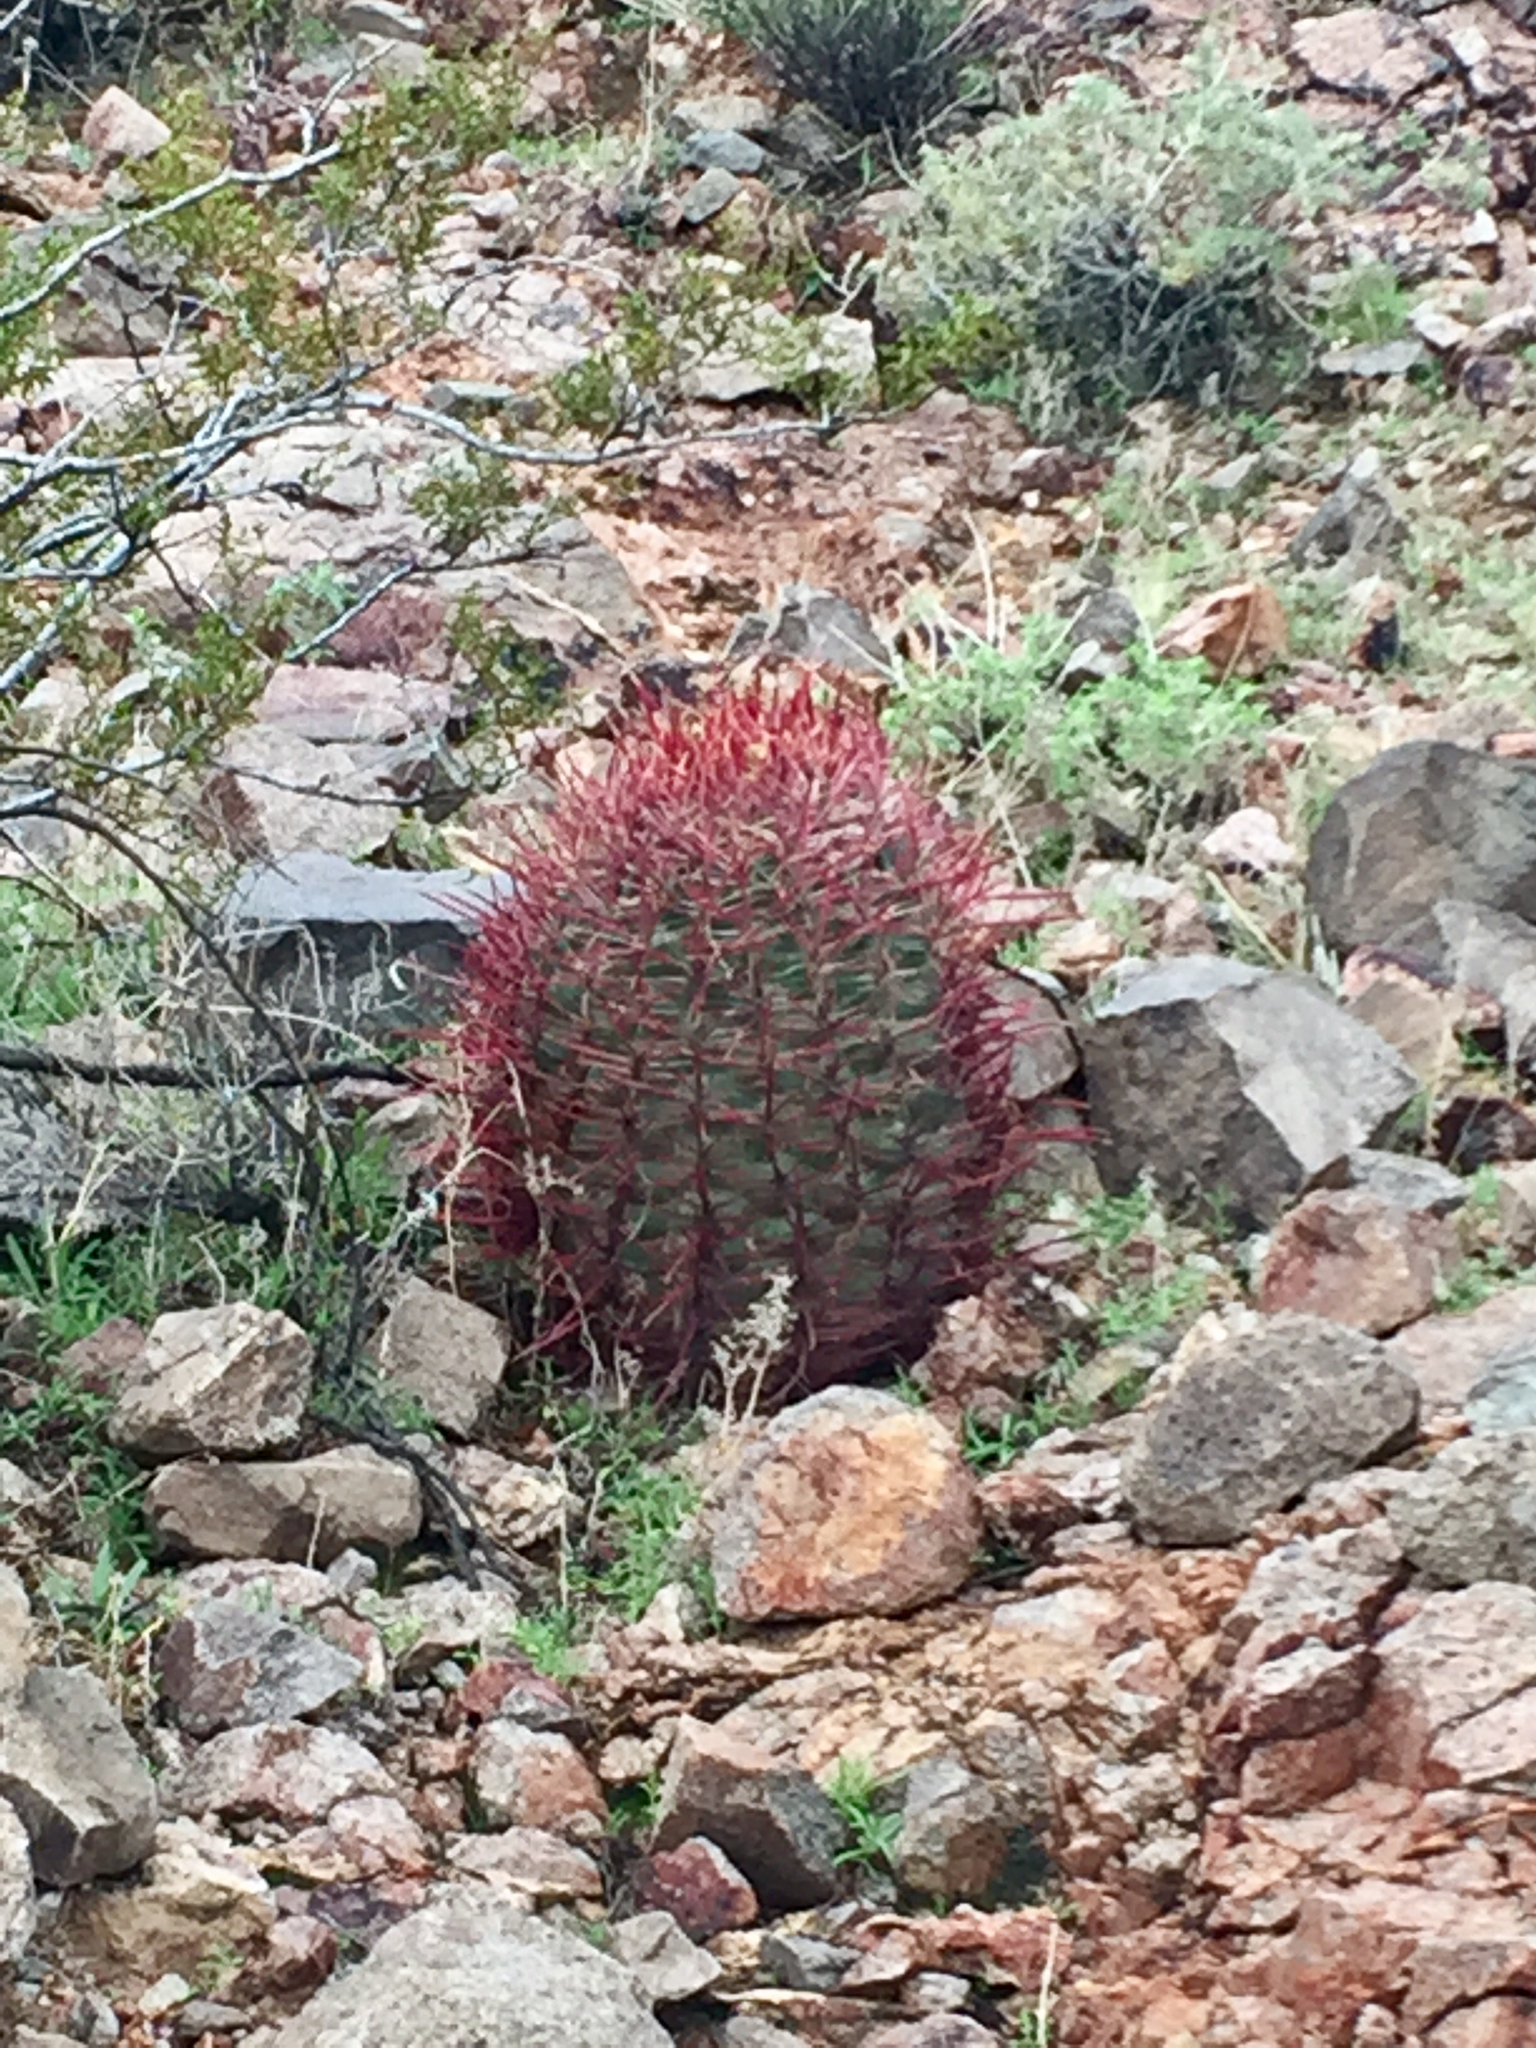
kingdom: Plantae
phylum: Tracheophyta
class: Magnoliopsida
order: Caryophyllales
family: Cactaceae
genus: Ferocactus
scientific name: Ferocactus cylindraceus
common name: California barrel cactus
